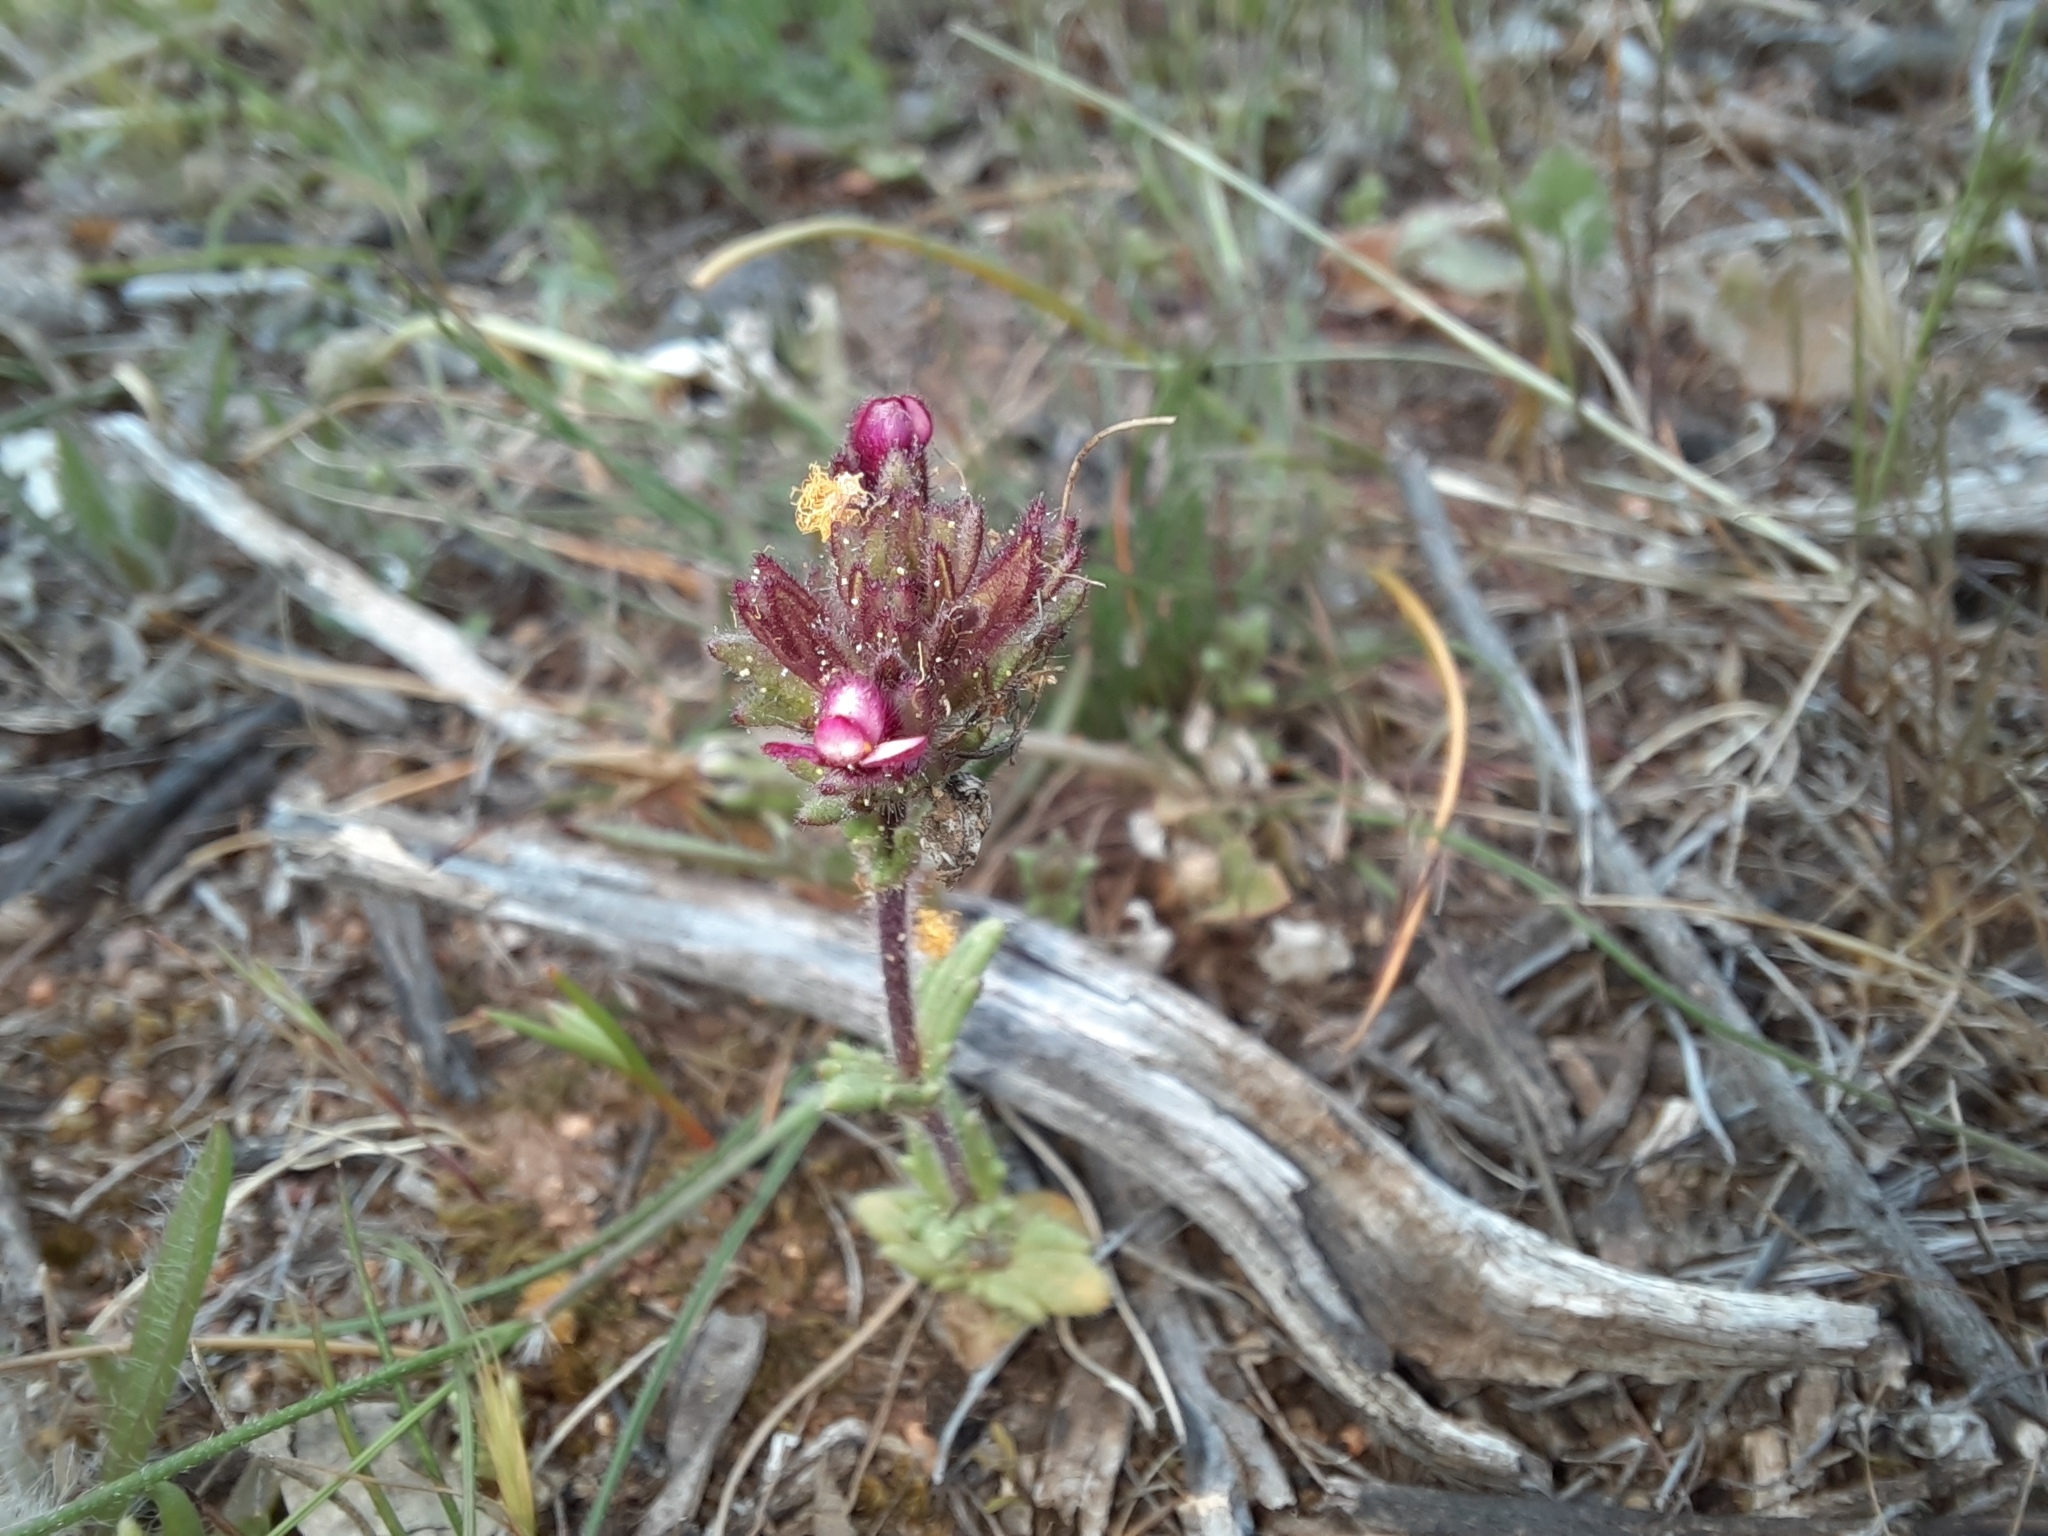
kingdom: Plantae
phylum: Tracheophyta
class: Magnoliopsida
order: Lamiales
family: Orobanchaceae
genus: Parentucellia
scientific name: Parentucellia latifolia
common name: Broadleaf glandweed
